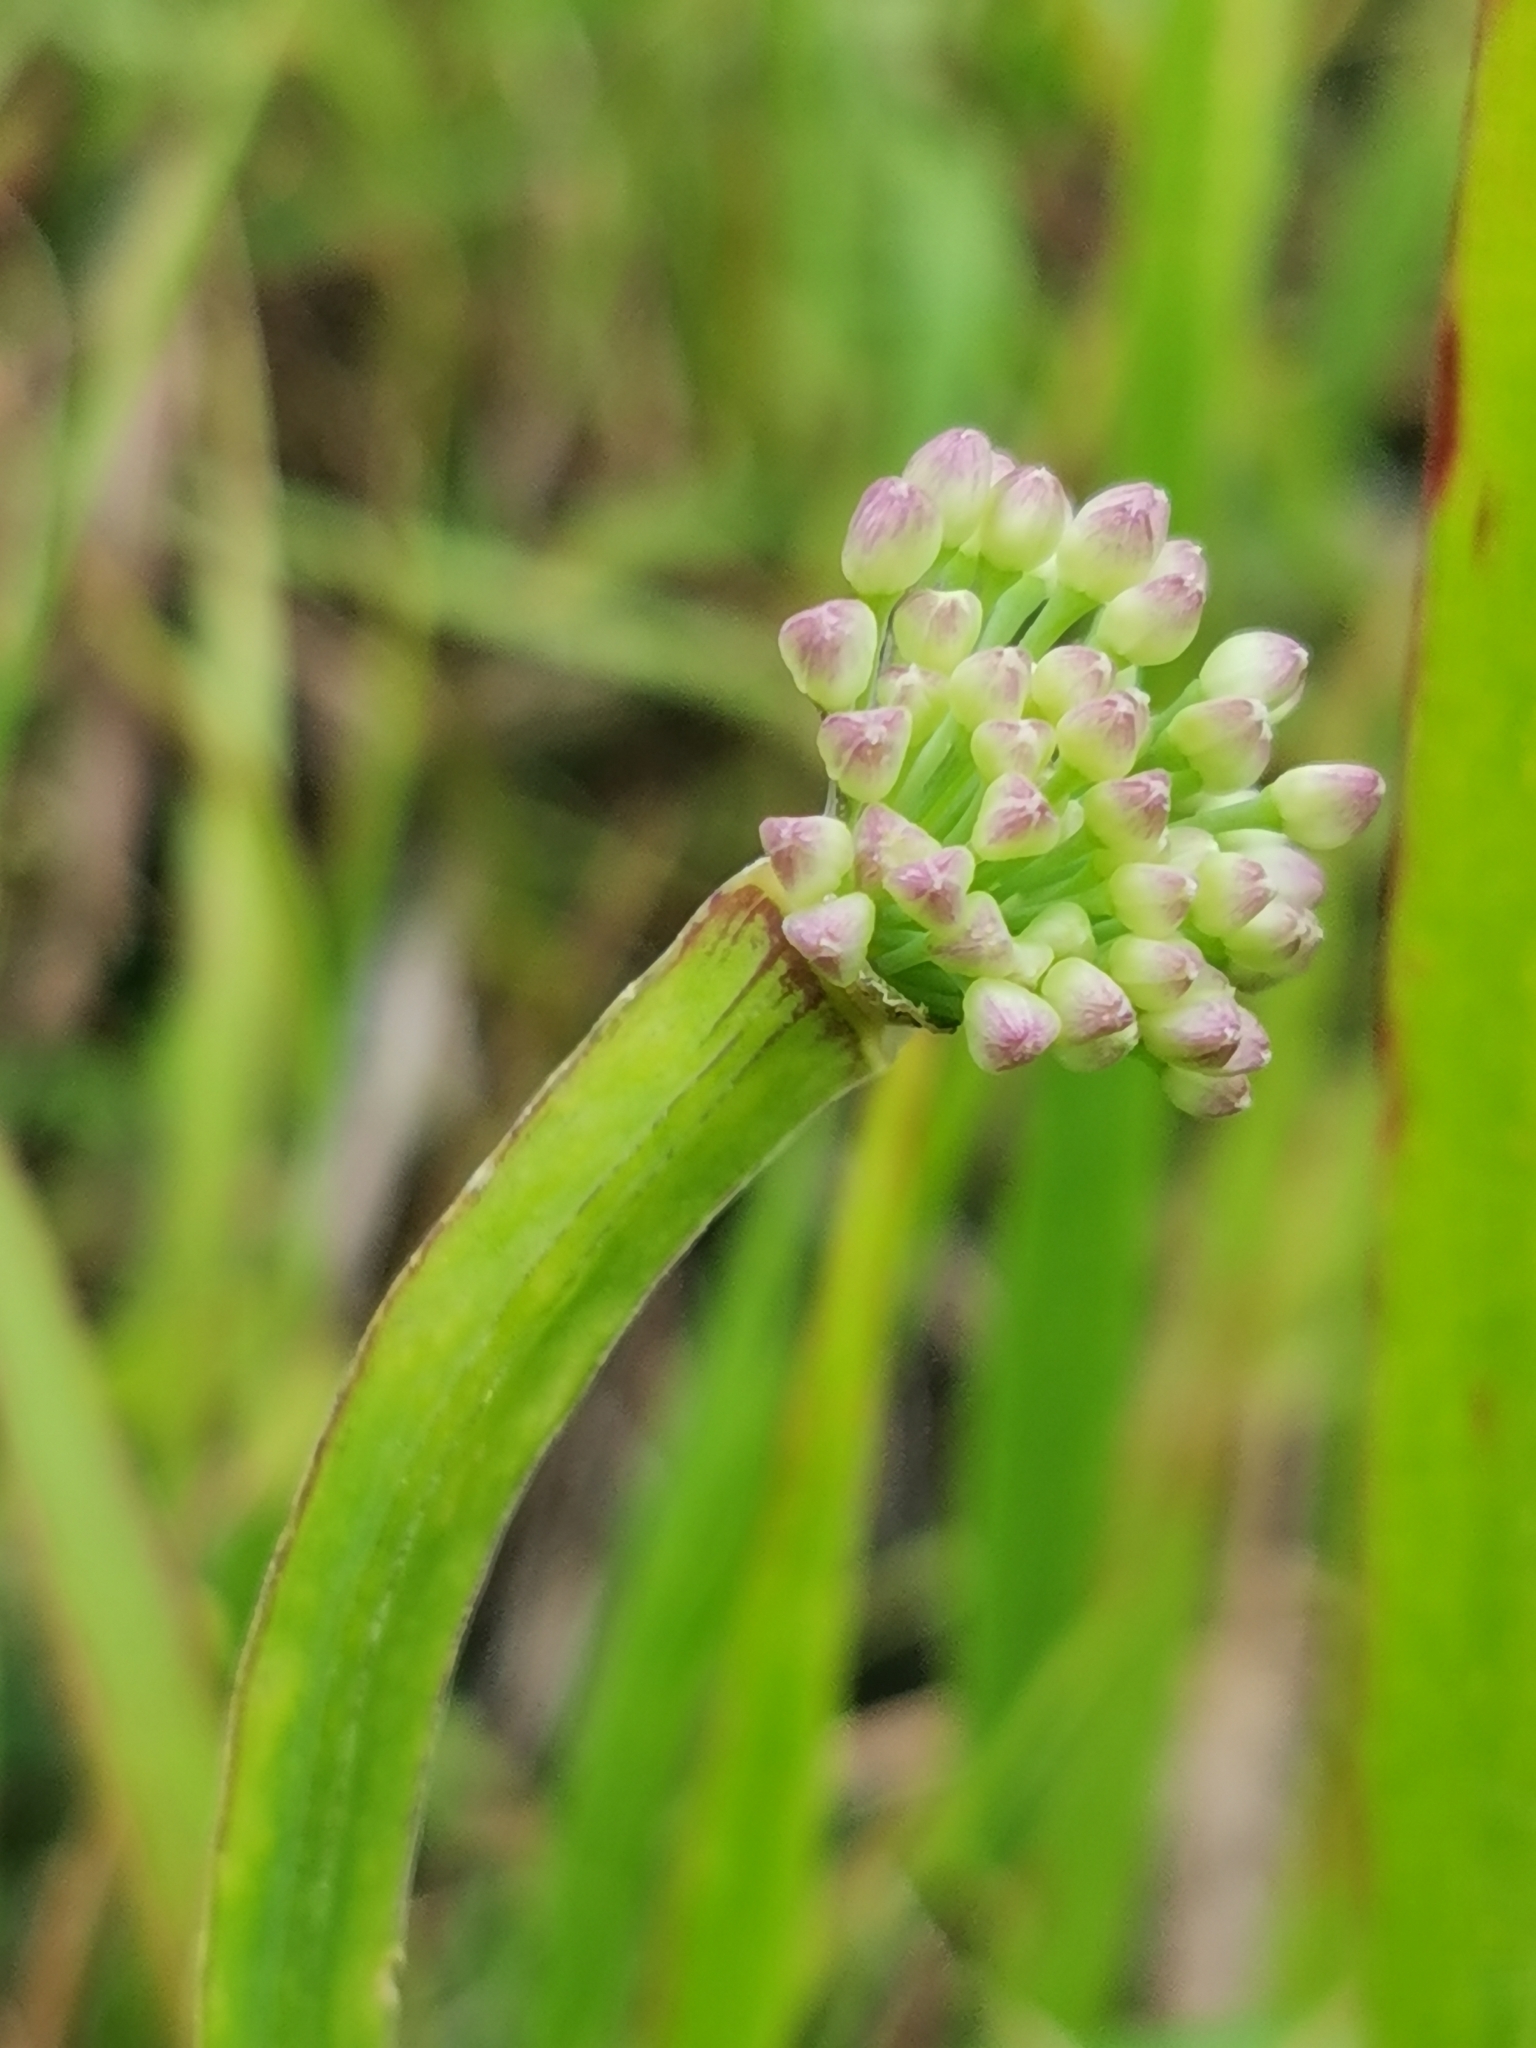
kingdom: Plantae
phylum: Tracheophyta
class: Liliopsida
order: Asparagales
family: Amaryllidaceae
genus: Allium
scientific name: Allium spirale
